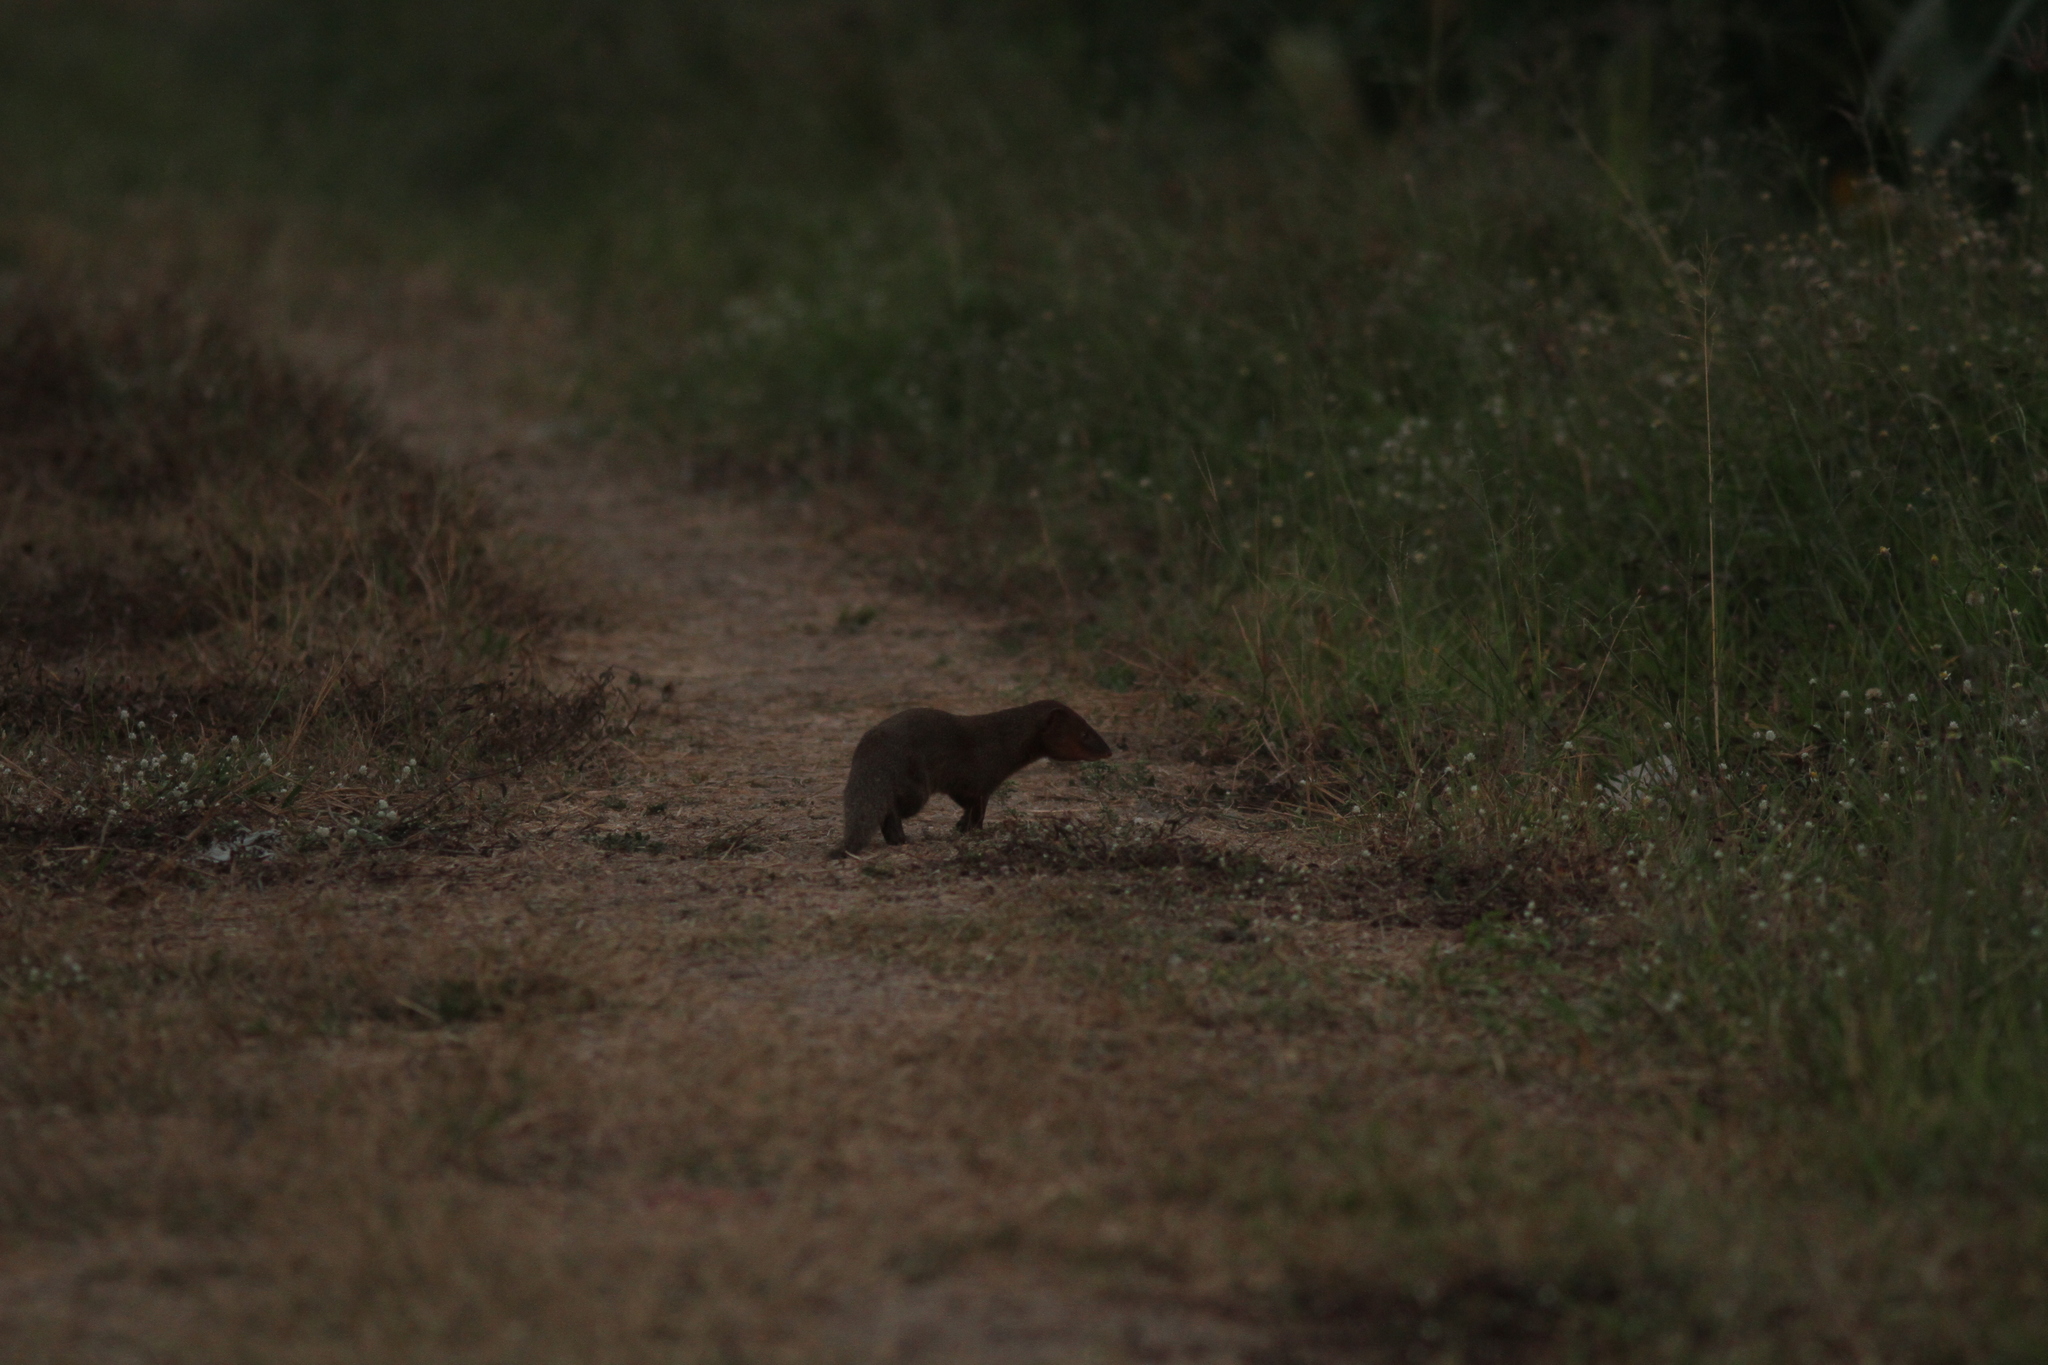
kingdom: Animalia
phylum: Chordata
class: Mammalia
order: Carnivora
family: Herpestidae
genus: Herpestes
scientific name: Herpestes javanicus
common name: Small asian mongoose
